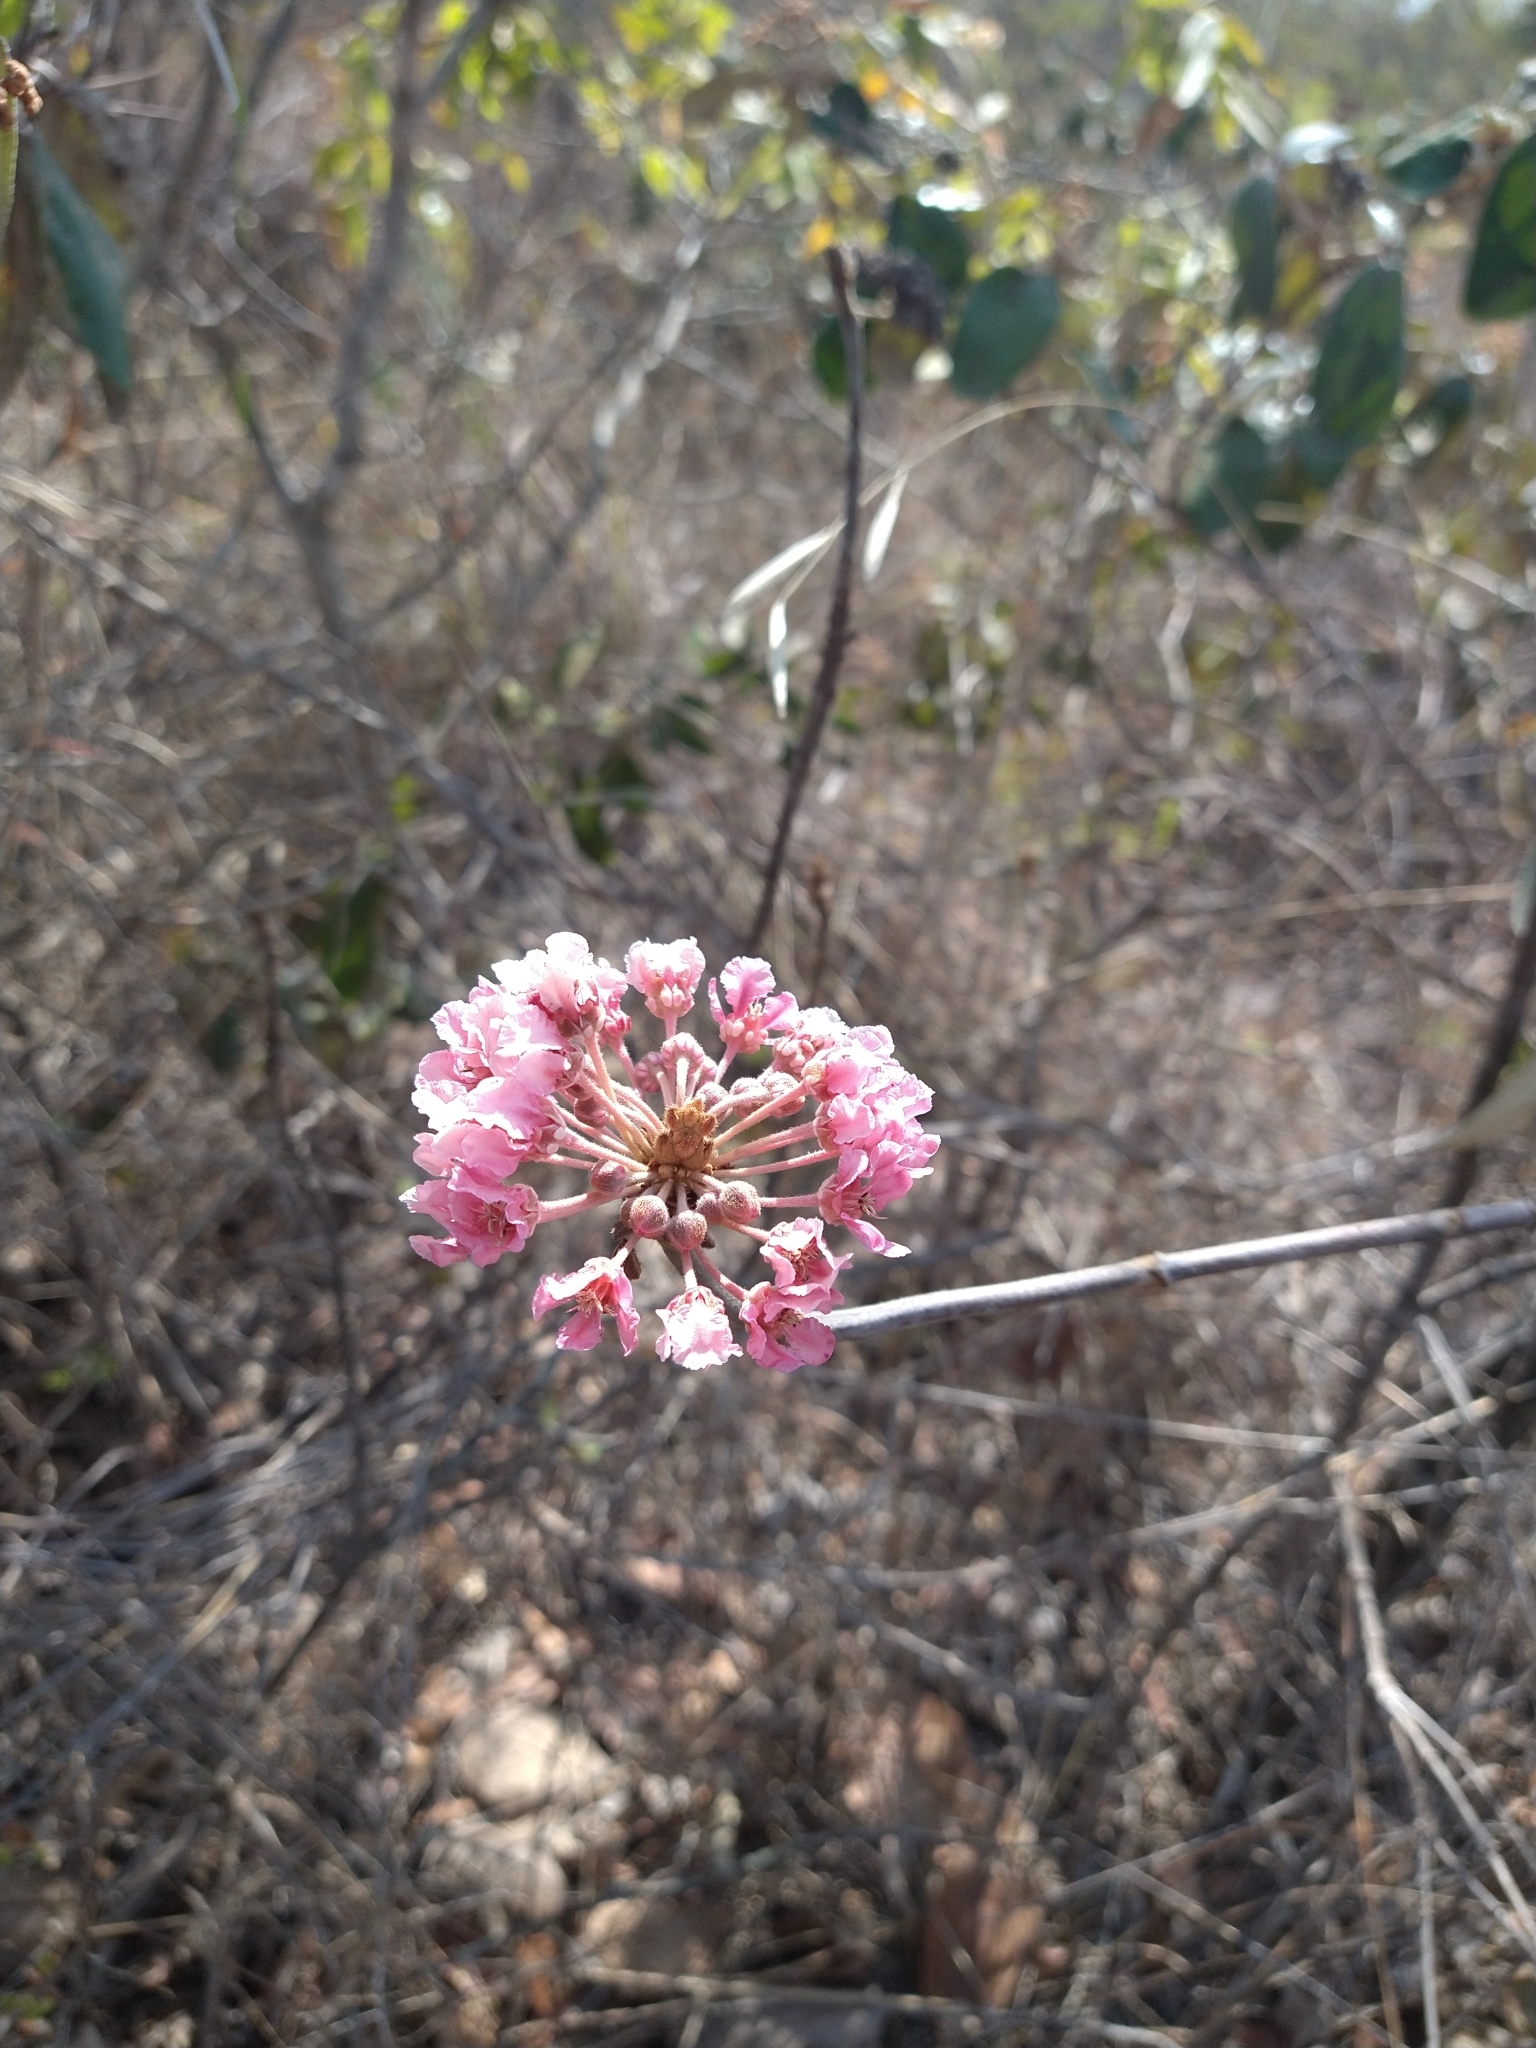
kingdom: Plantae
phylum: Tracheophyta
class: Magnoliopsida
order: Malpighiales
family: Malpighiaceae
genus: Pterandra
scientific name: Pterandra pyroidea
